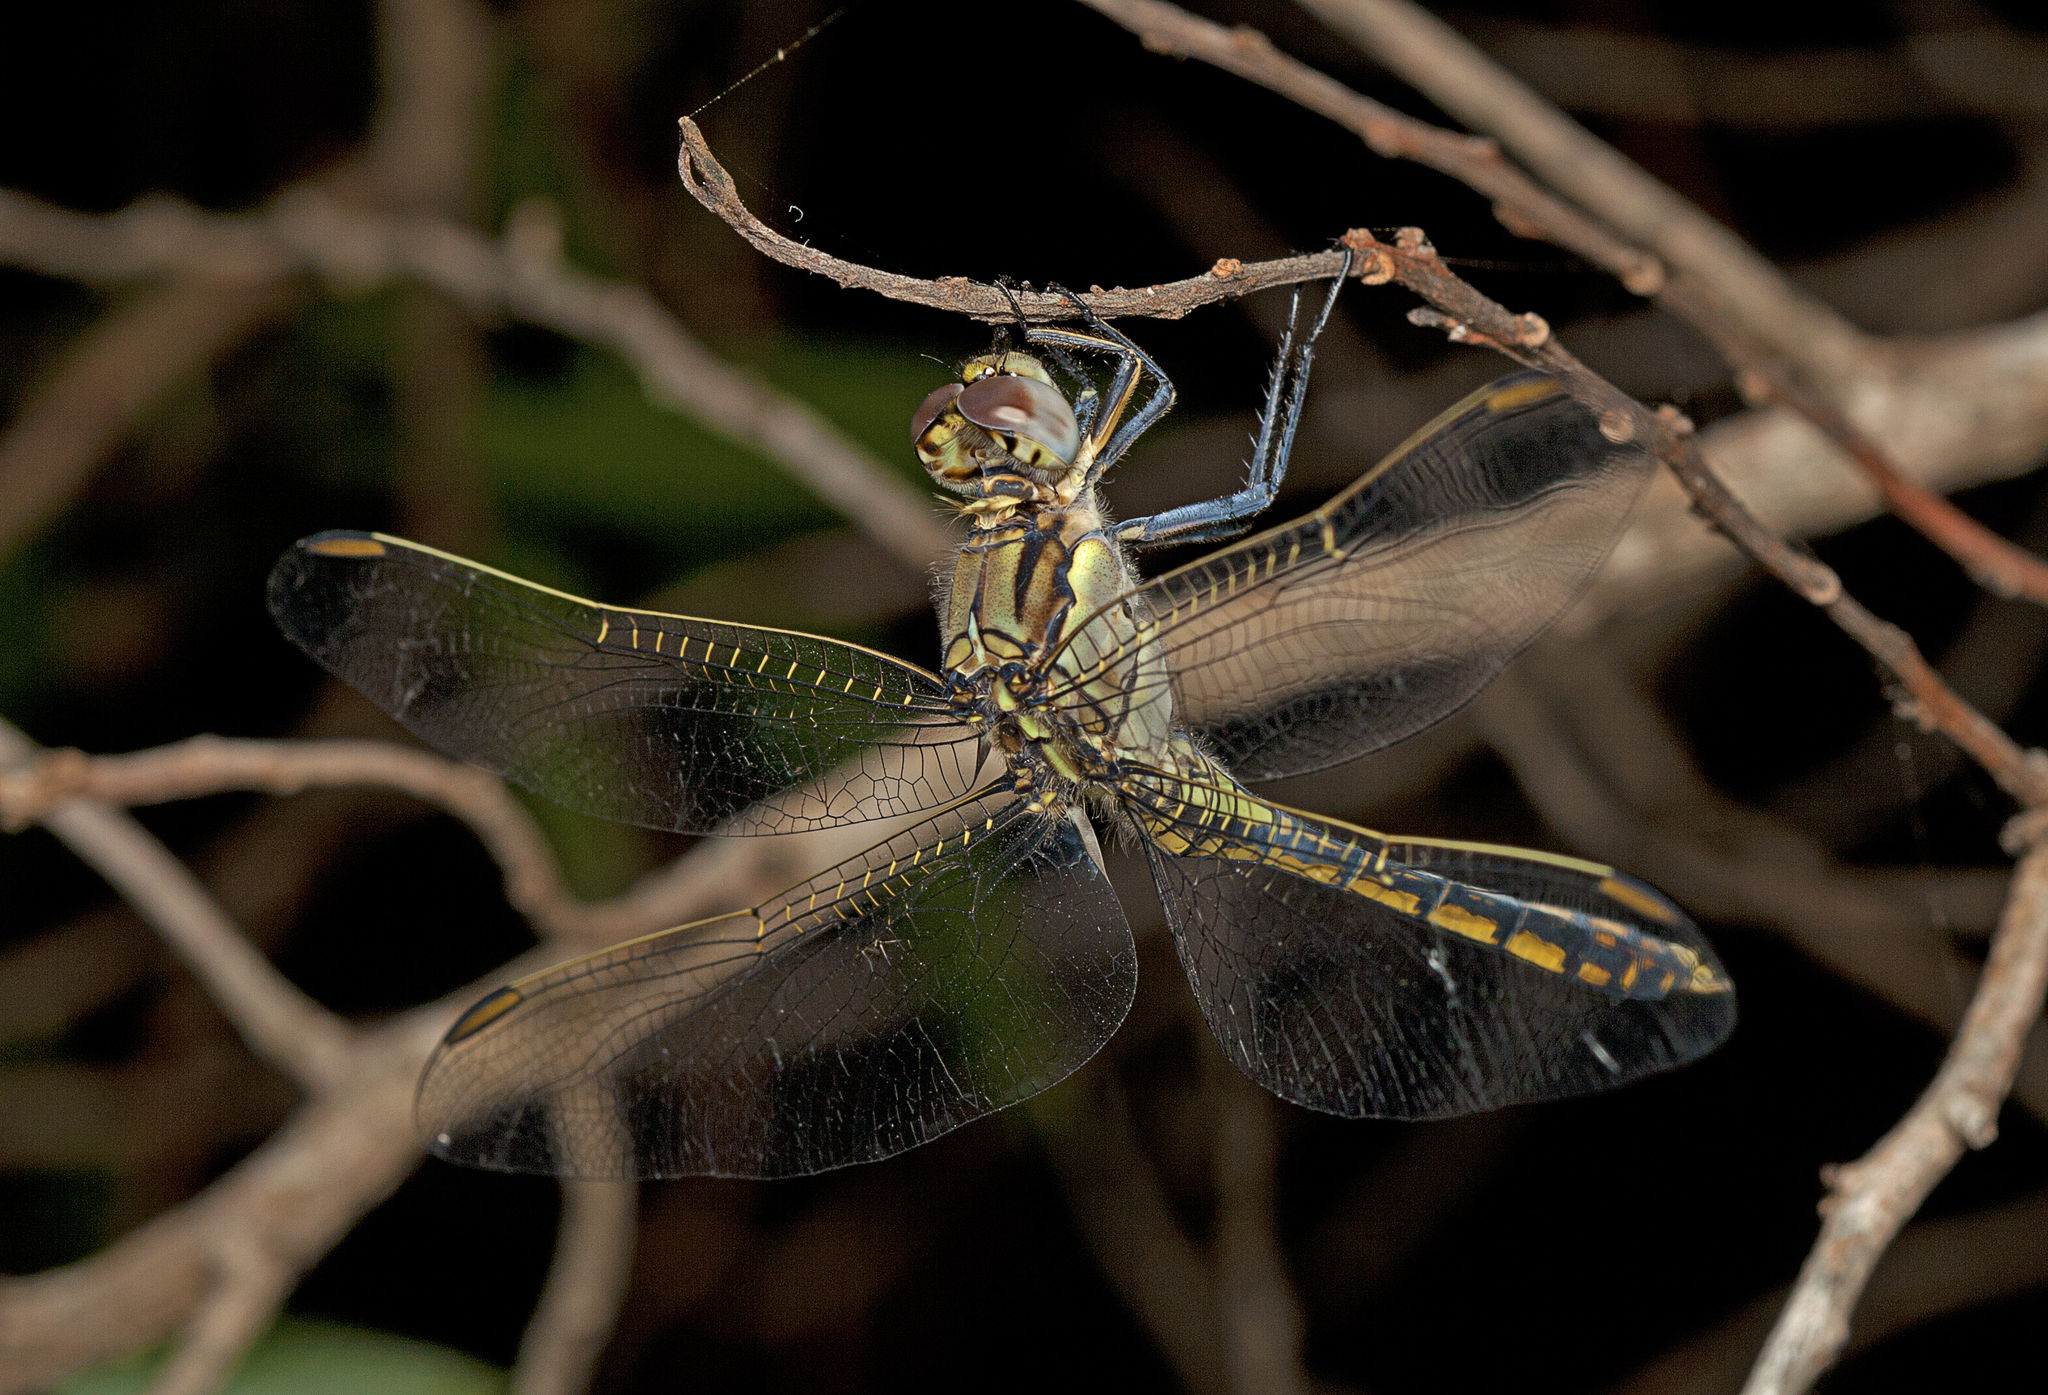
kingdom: Animalia
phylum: Arthropoda
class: Insecta
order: Odonata
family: Libellulidae
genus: Orthetrum
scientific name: Orthetrum caledonicum
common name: Blue skimmer
